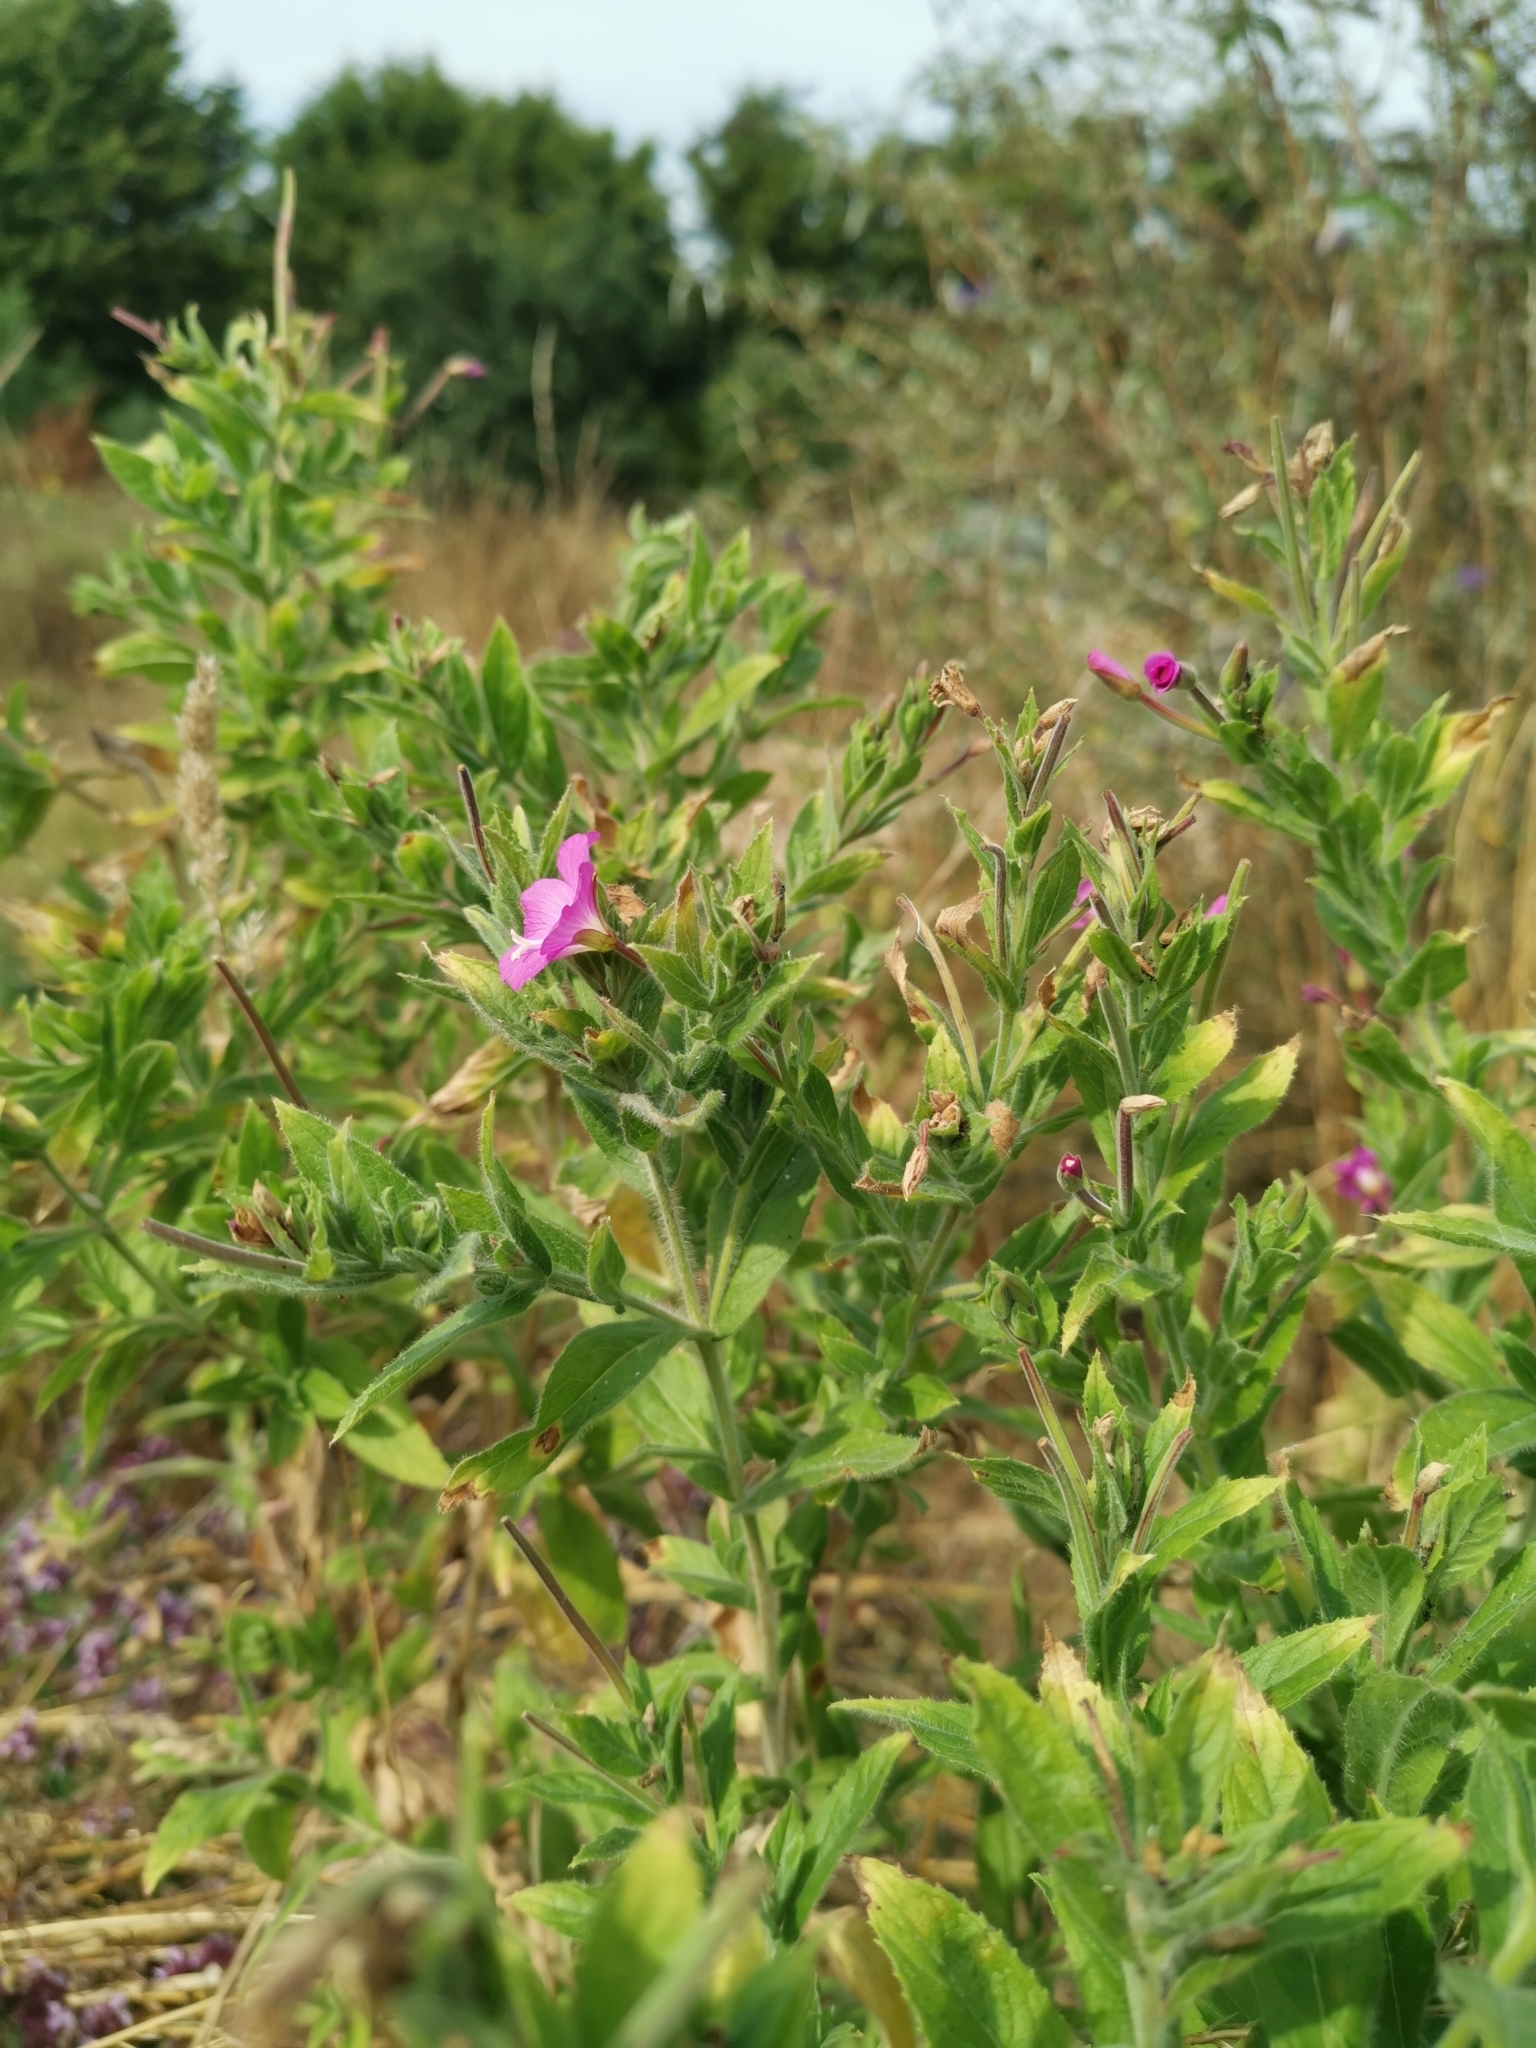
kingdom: Plantae
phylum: Tracheophyta
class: Magnoliopsida
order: Myrtales
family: Onagraceae
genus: Epilobium
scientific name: Epilobium hirsutum
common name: Great willowherb
